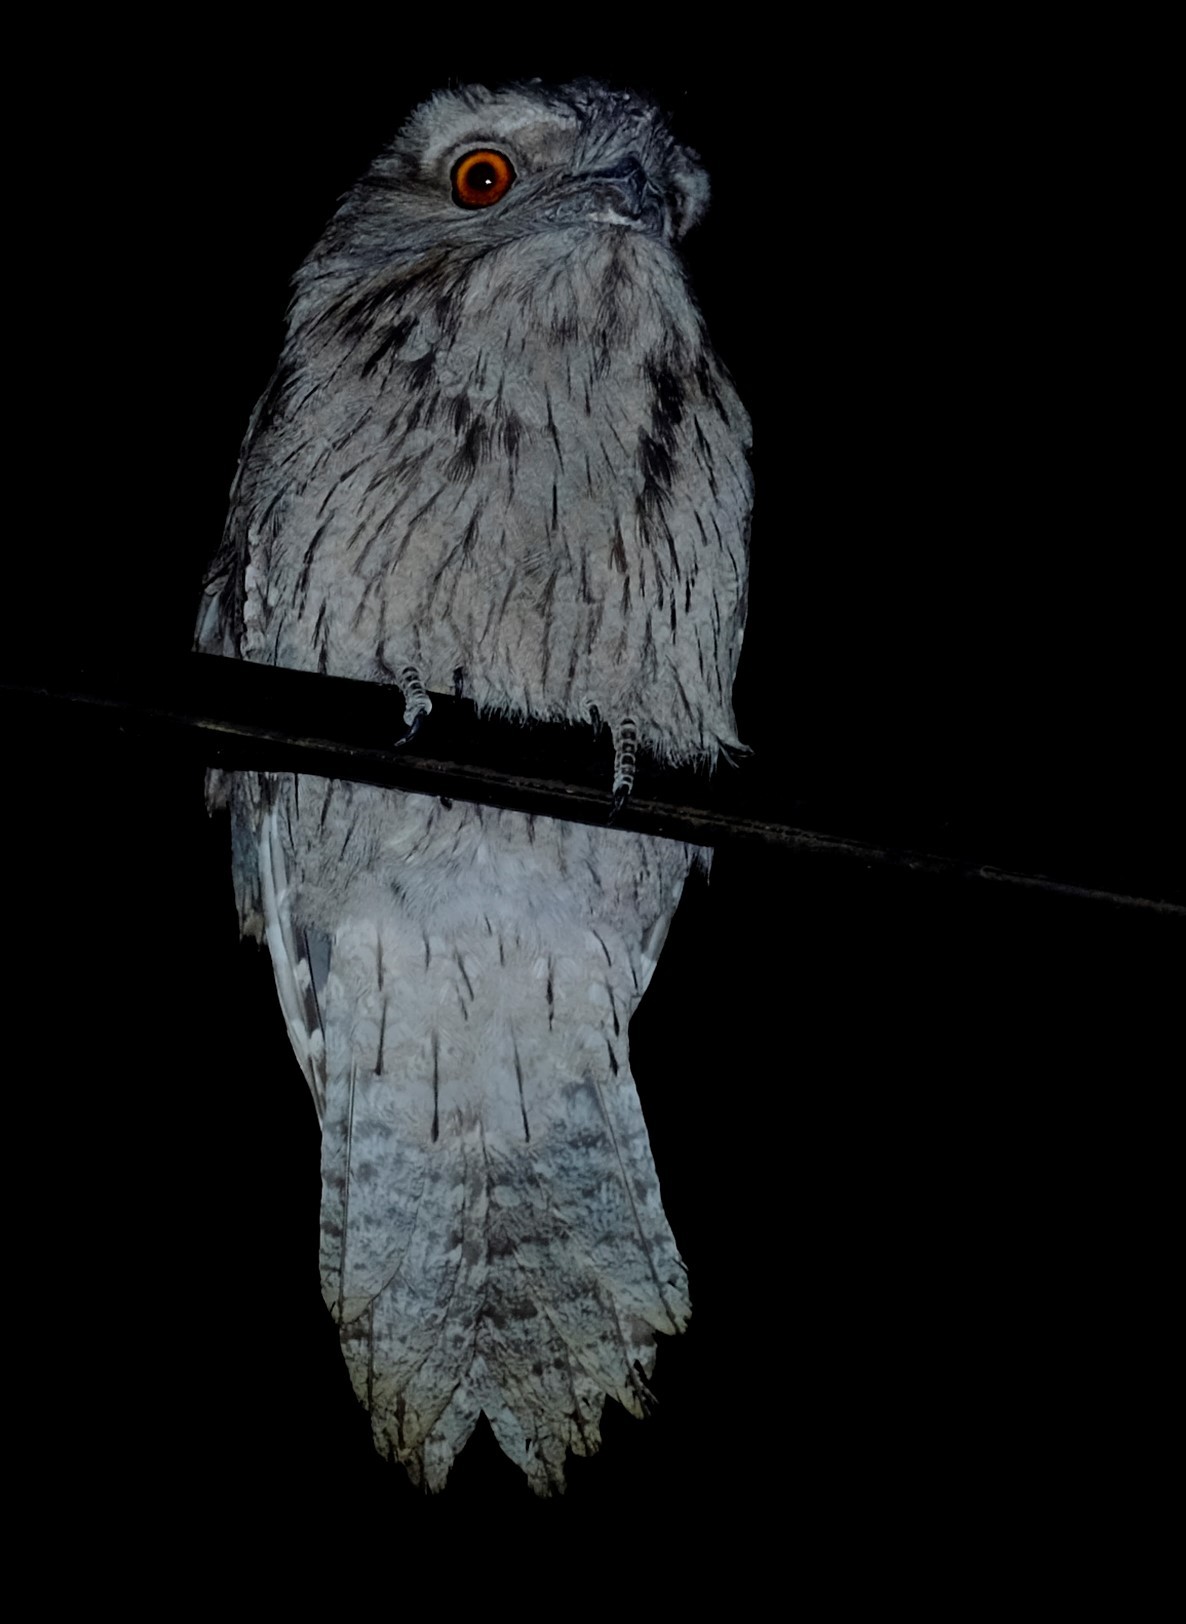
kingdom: Animalia
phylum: Chordata
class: Aves
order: Caprimulgiformes
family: Podargidae
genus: Podargus
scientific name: Podargus strigoides
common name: Tawny frogmouth
